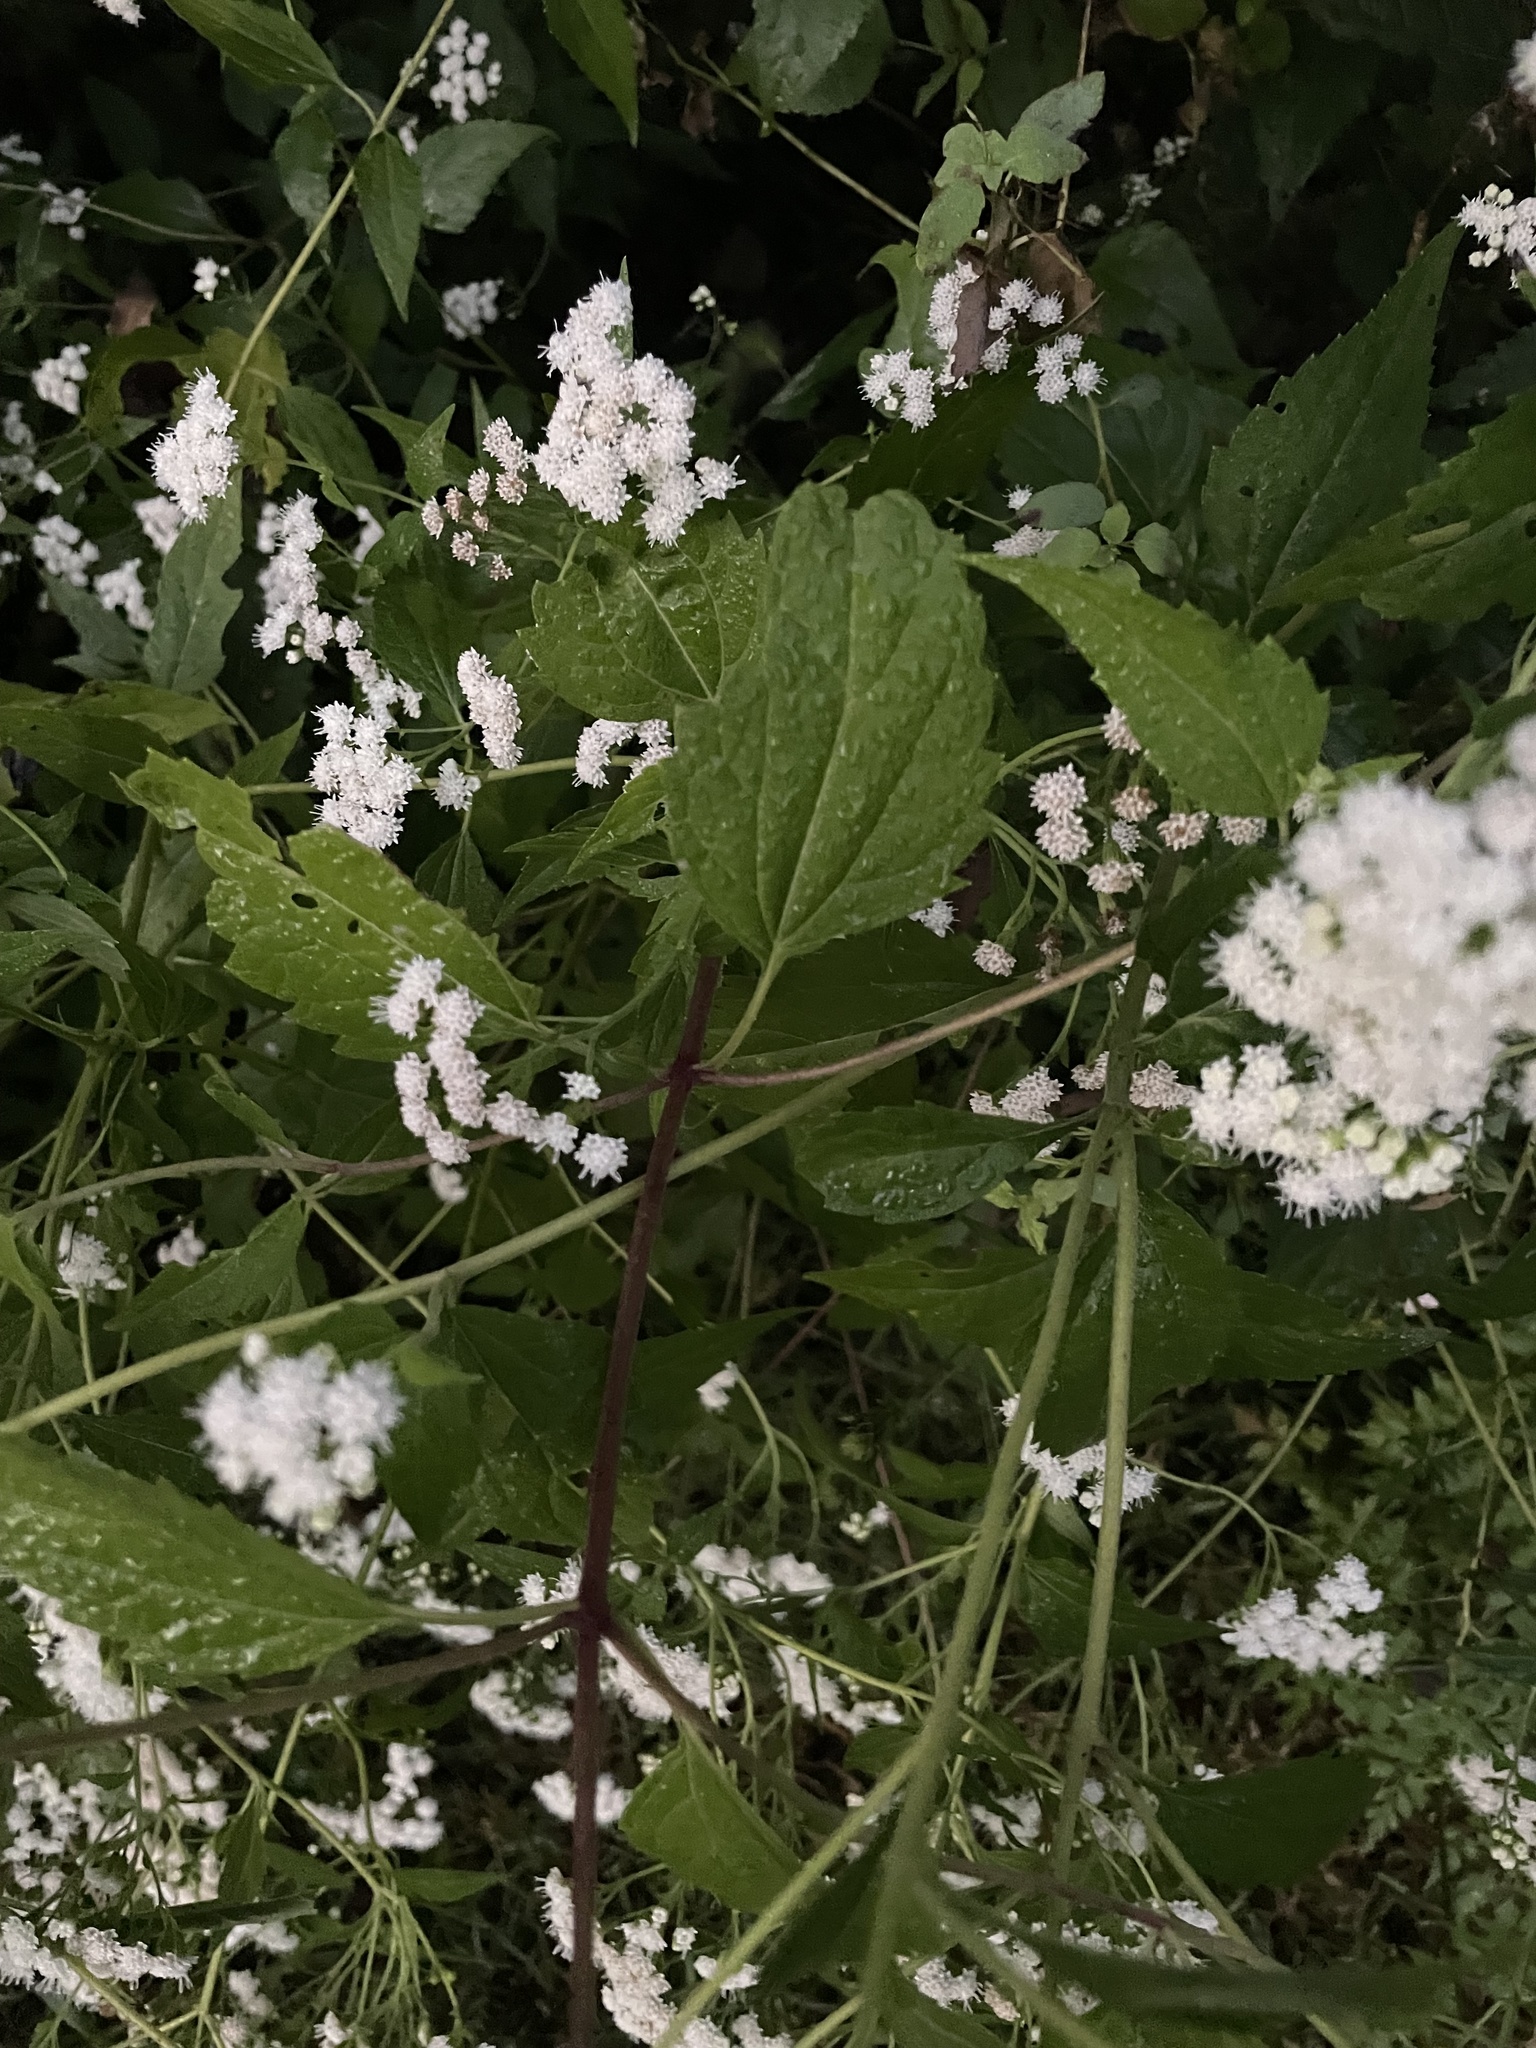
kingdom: Plantae
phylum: Tracheophyta
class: Magnoliopsida
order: Asterales
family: Asteraceae
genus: Ageratina
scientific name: Ageratina altissima
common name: White snakeroot
